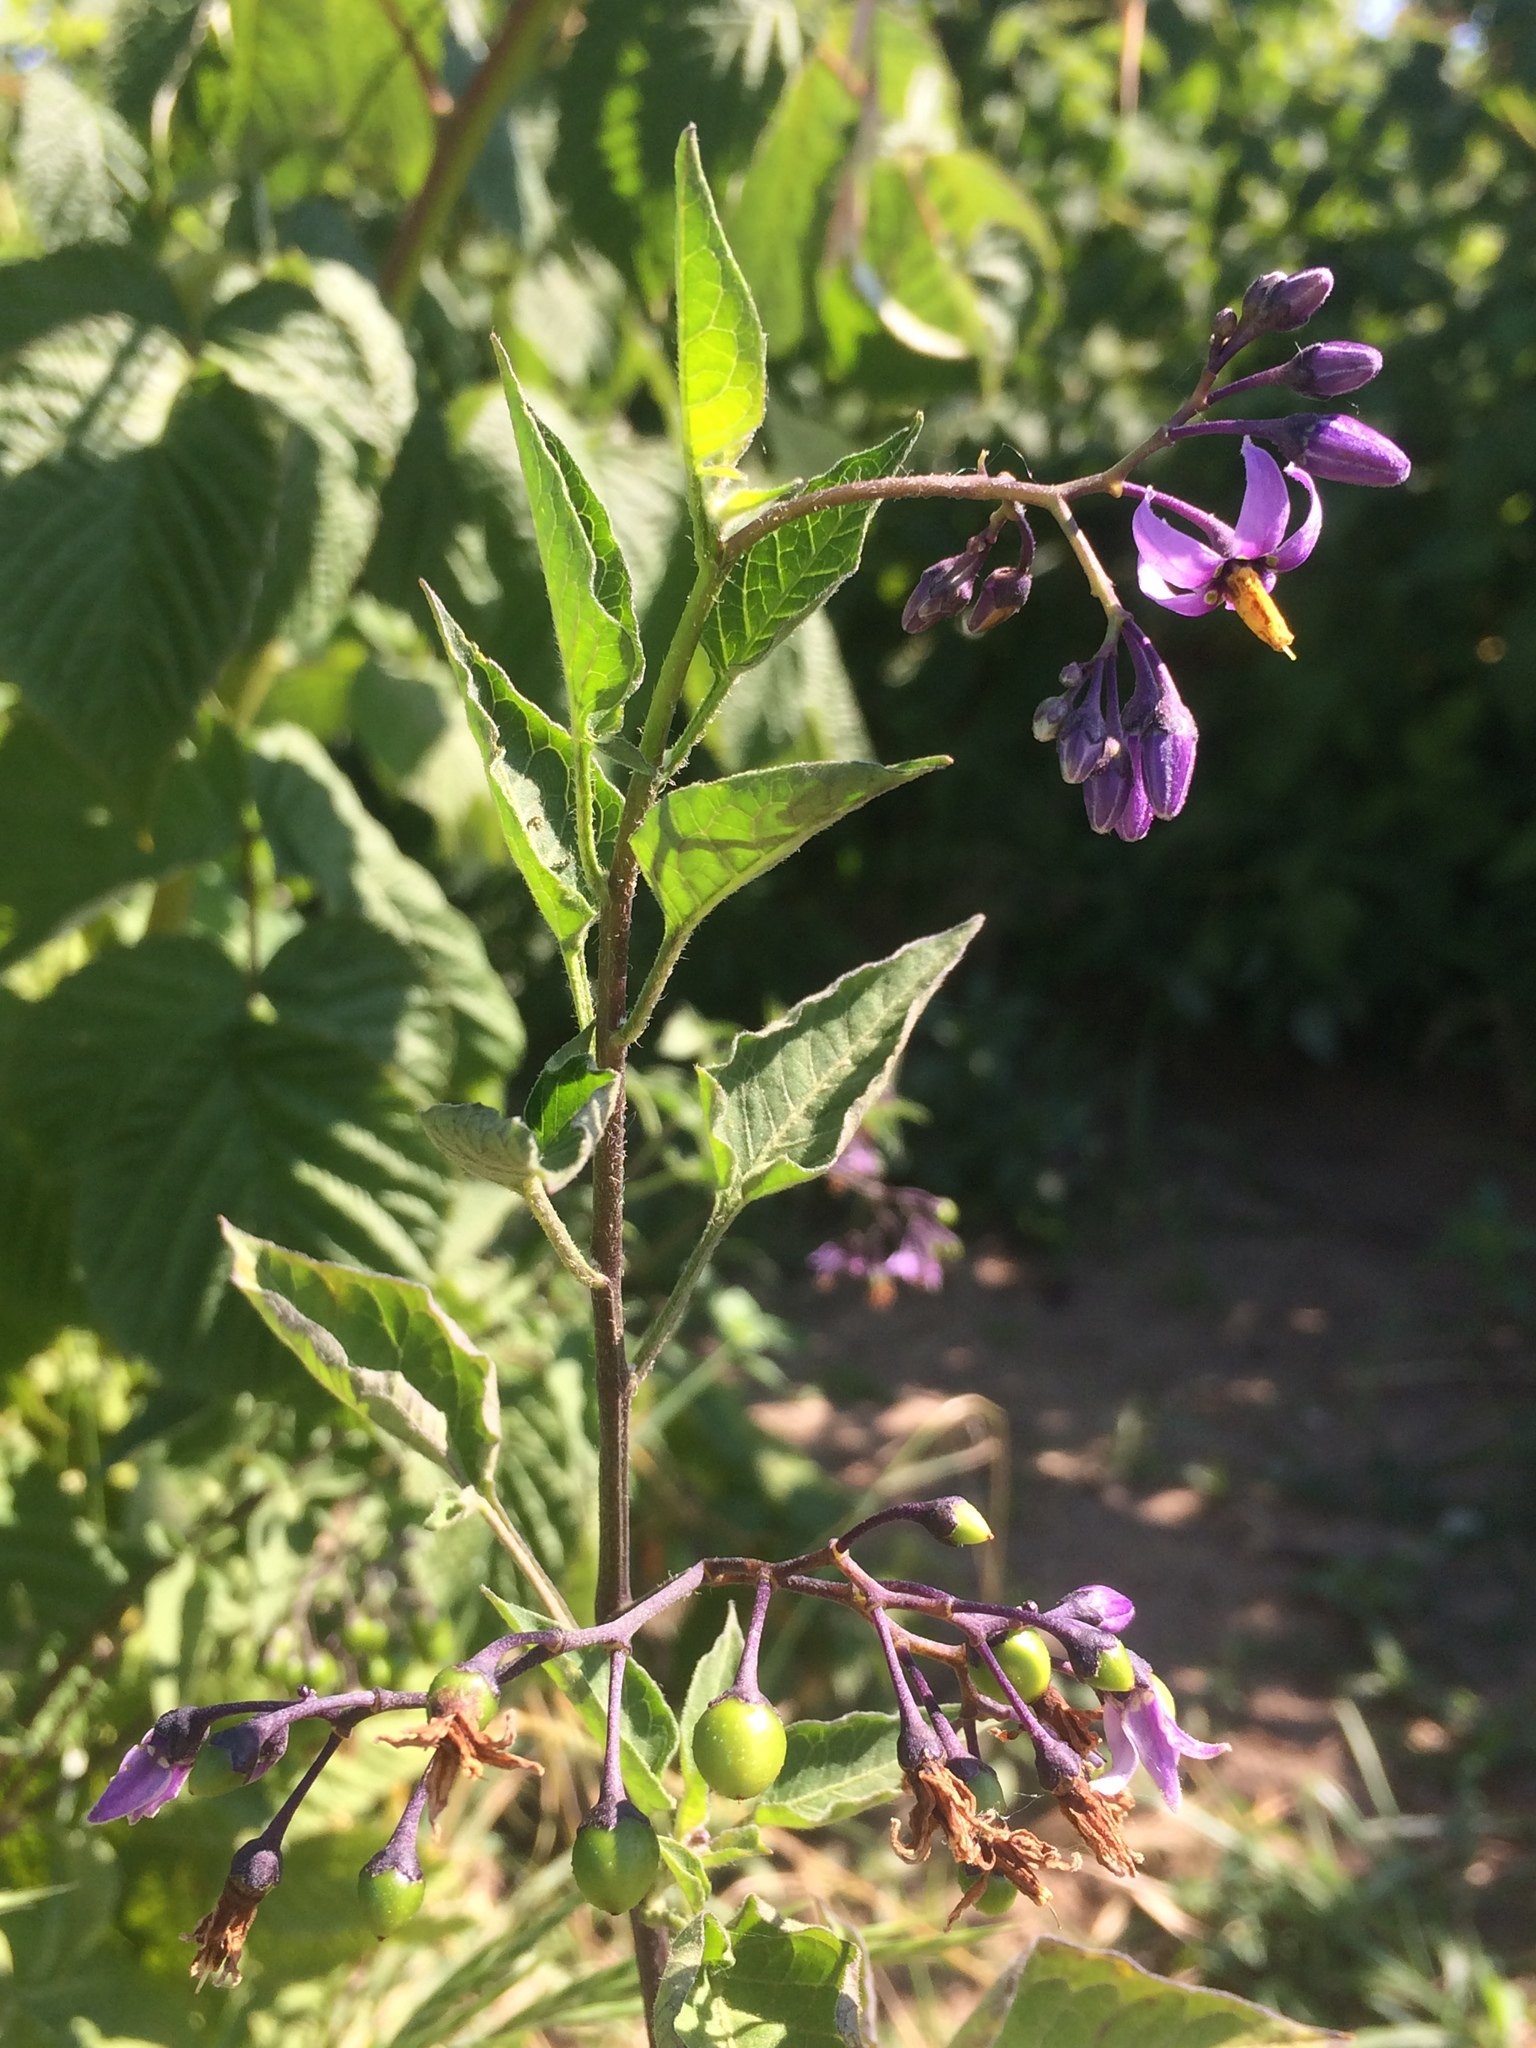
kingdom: Plantae
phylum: Tracheophyta
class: Magnoliopsida
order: Solanales
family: Solanaceae
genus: Solanum
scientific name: Solanum dulcamara
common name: Climbing nightshade
